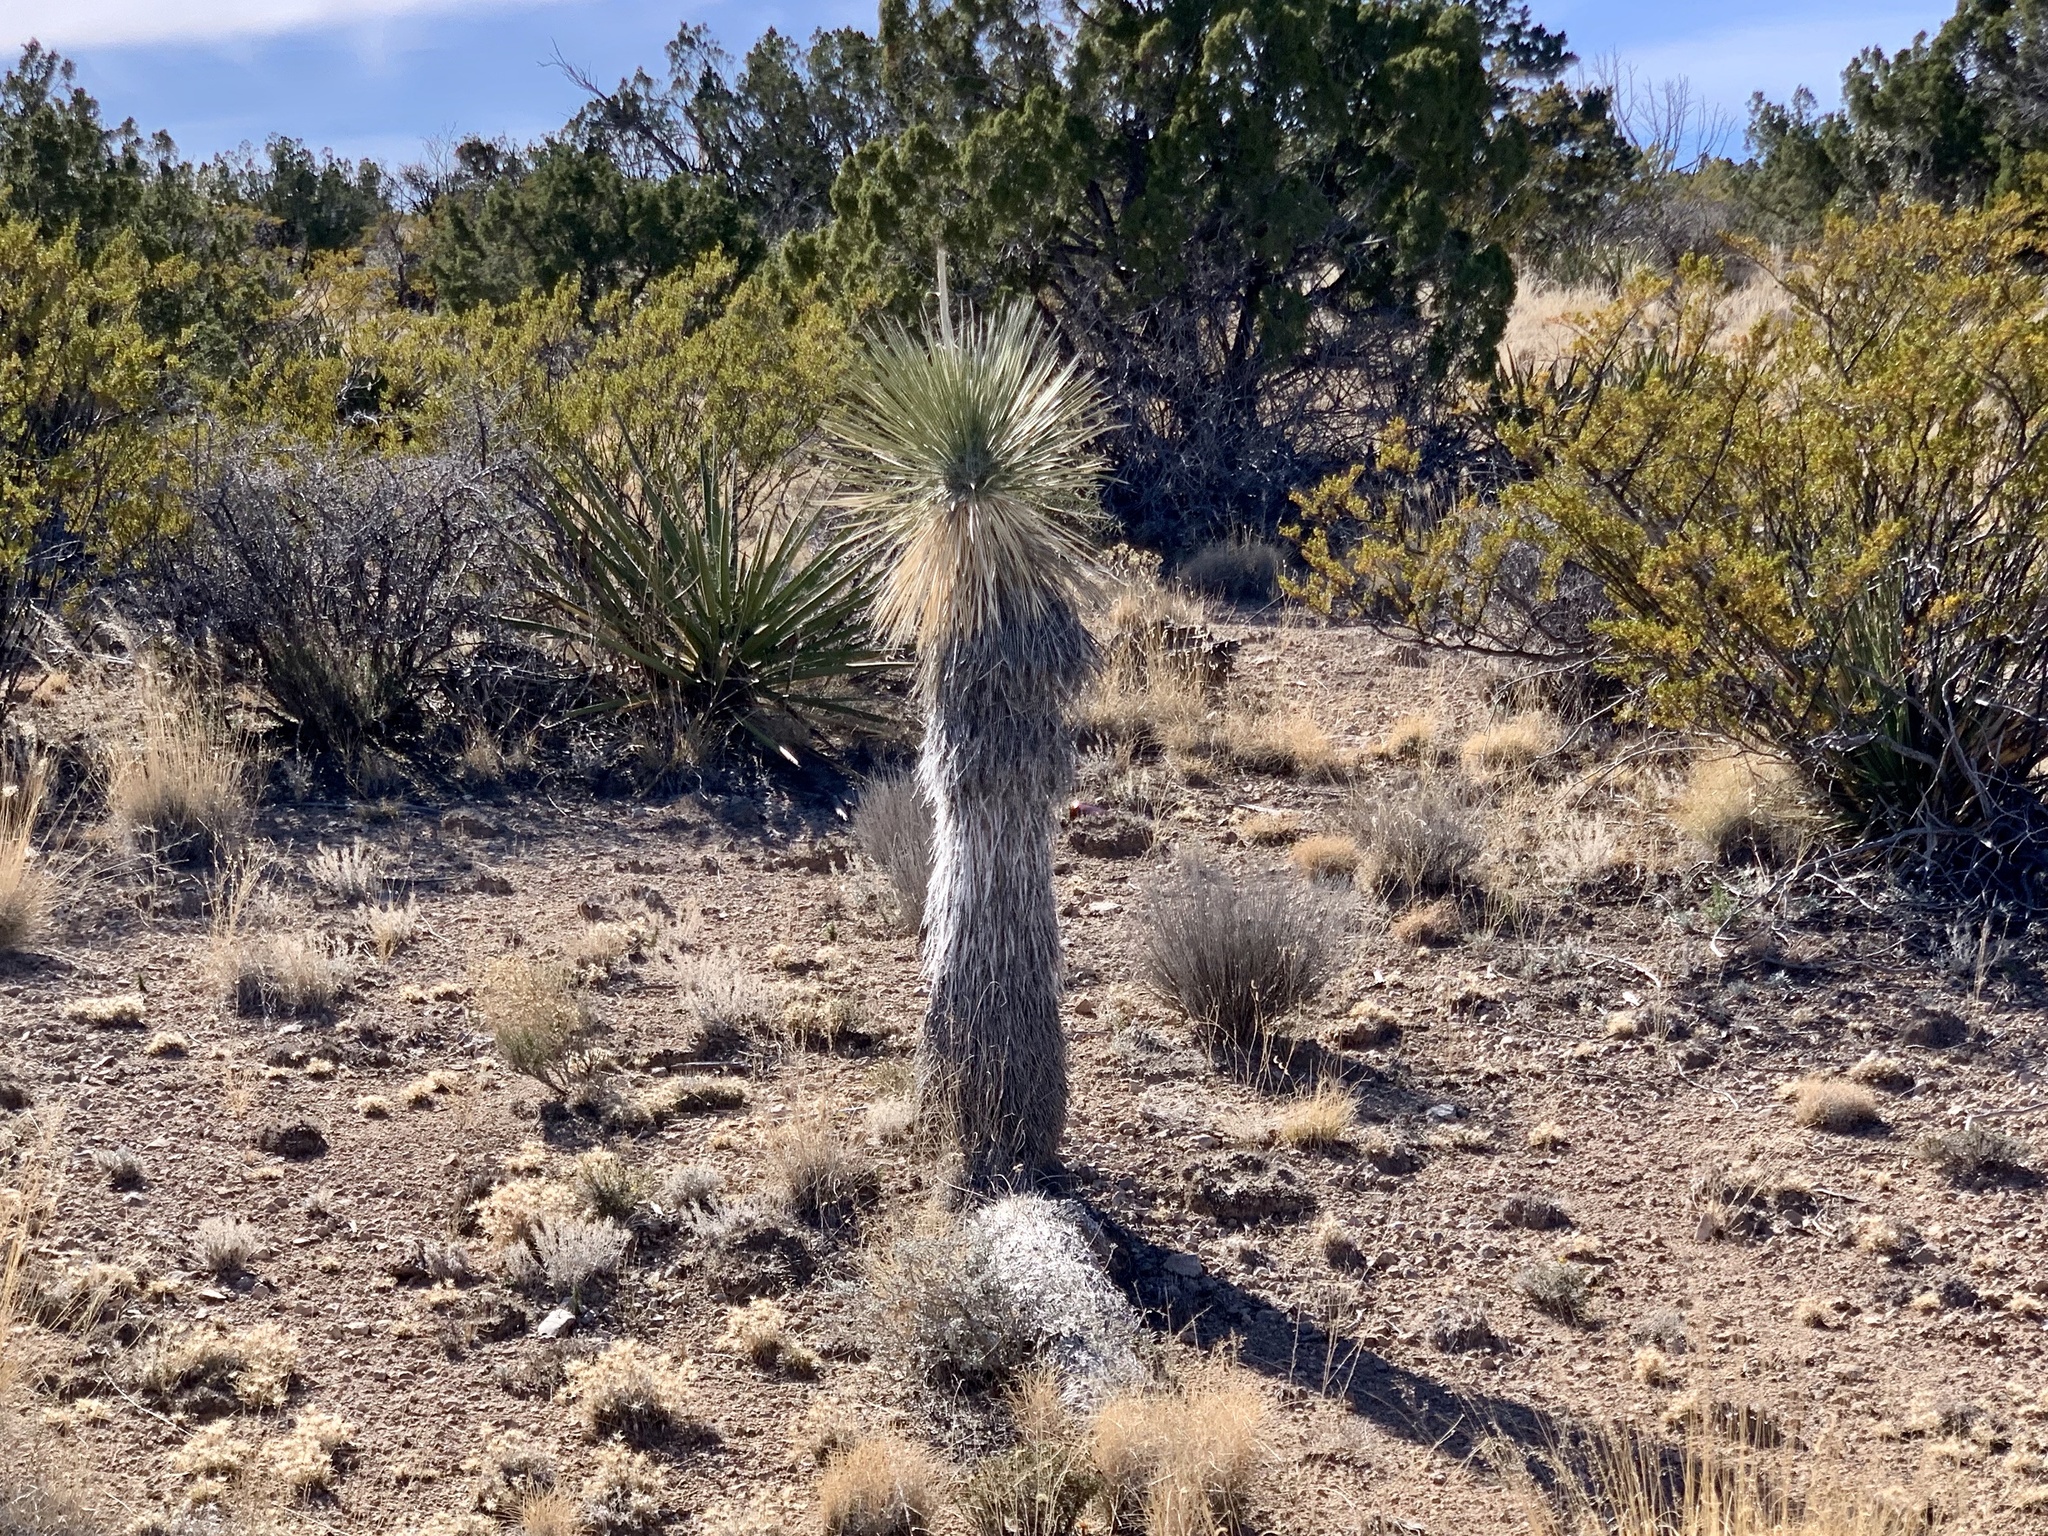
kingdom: Plantae
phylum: Tracheophyta
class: Liliopsida
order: Asparagales
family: Asparagaceae
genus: Yucca
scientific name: Yucca elata
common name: Palmella
